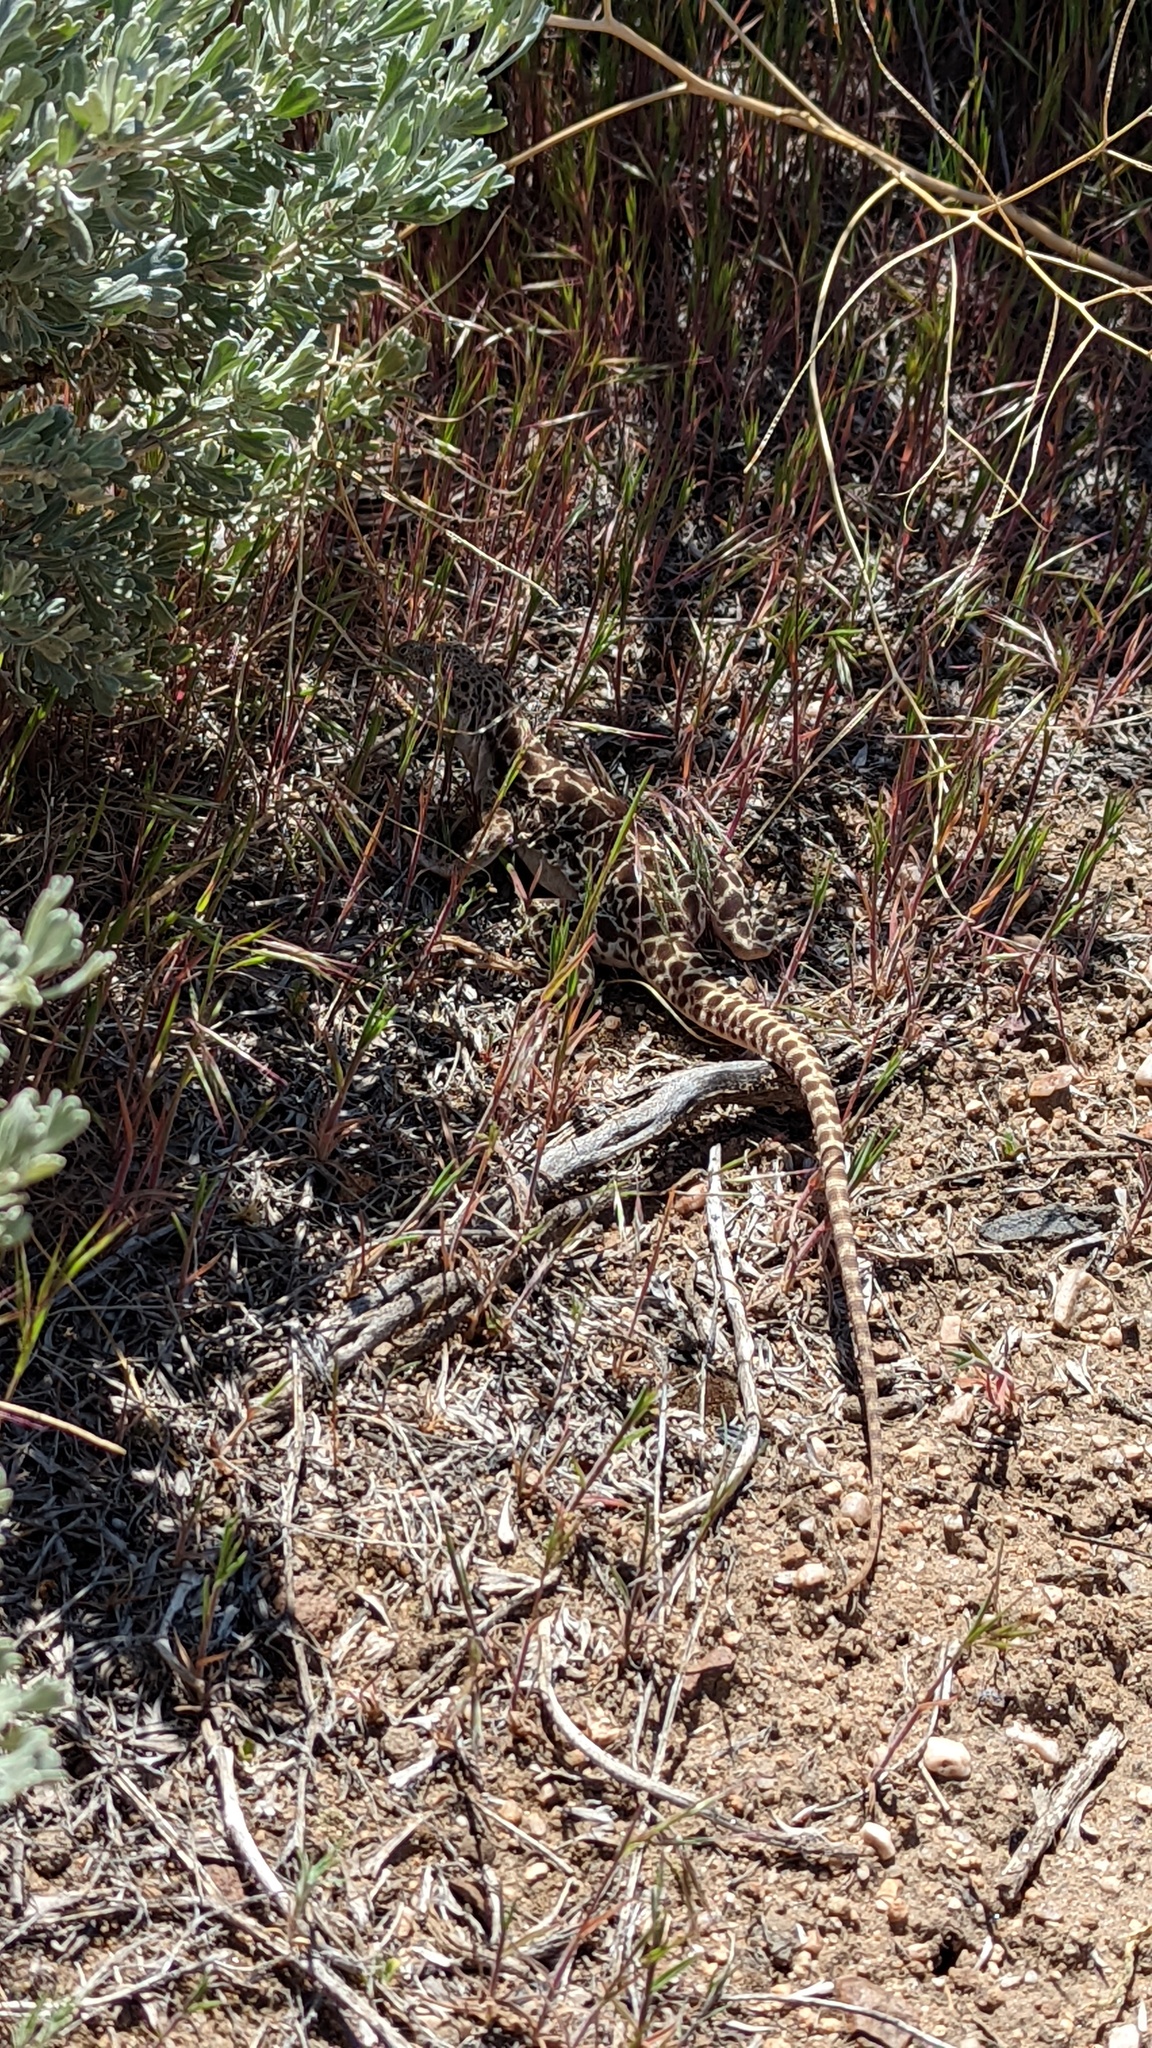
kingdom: Animalia
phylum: Chordata
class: Squamata
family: Crotaphytidae
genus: Gambelia
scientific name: Gambelia wislizenii
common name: Longnose leopard lizard
